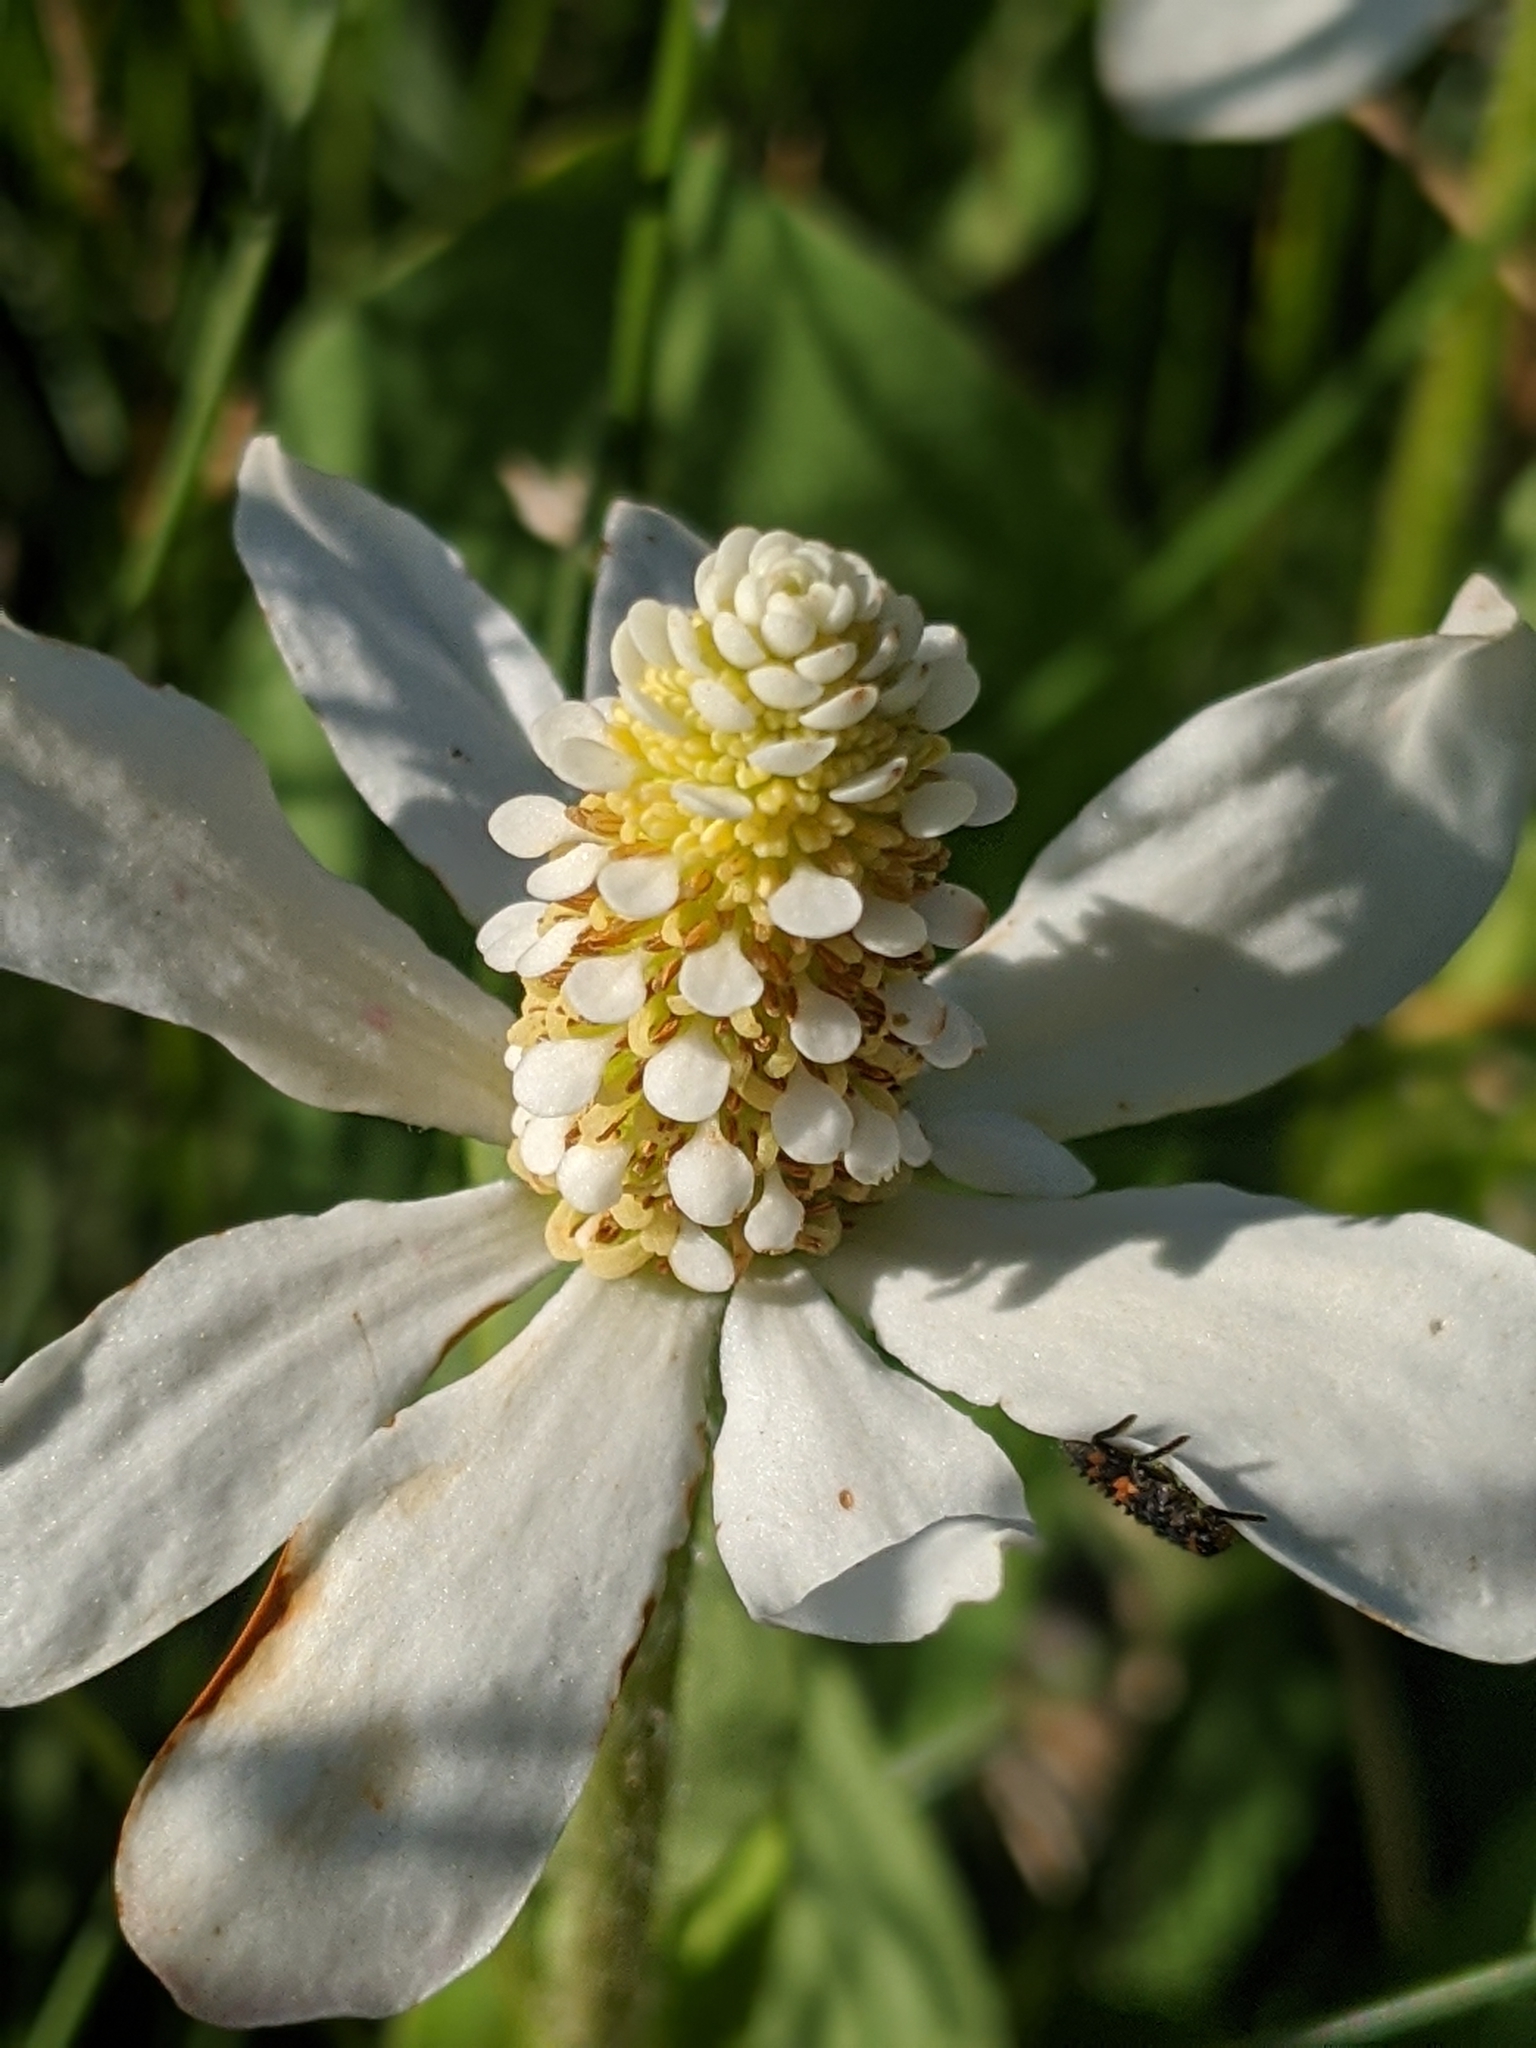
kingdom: Plantae
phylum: Tracheophyta
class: Magnoliopsida
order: Piperales
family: Saururaceae
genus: Anemopsis
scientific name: Anemopsis californica
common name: Apache-beads
